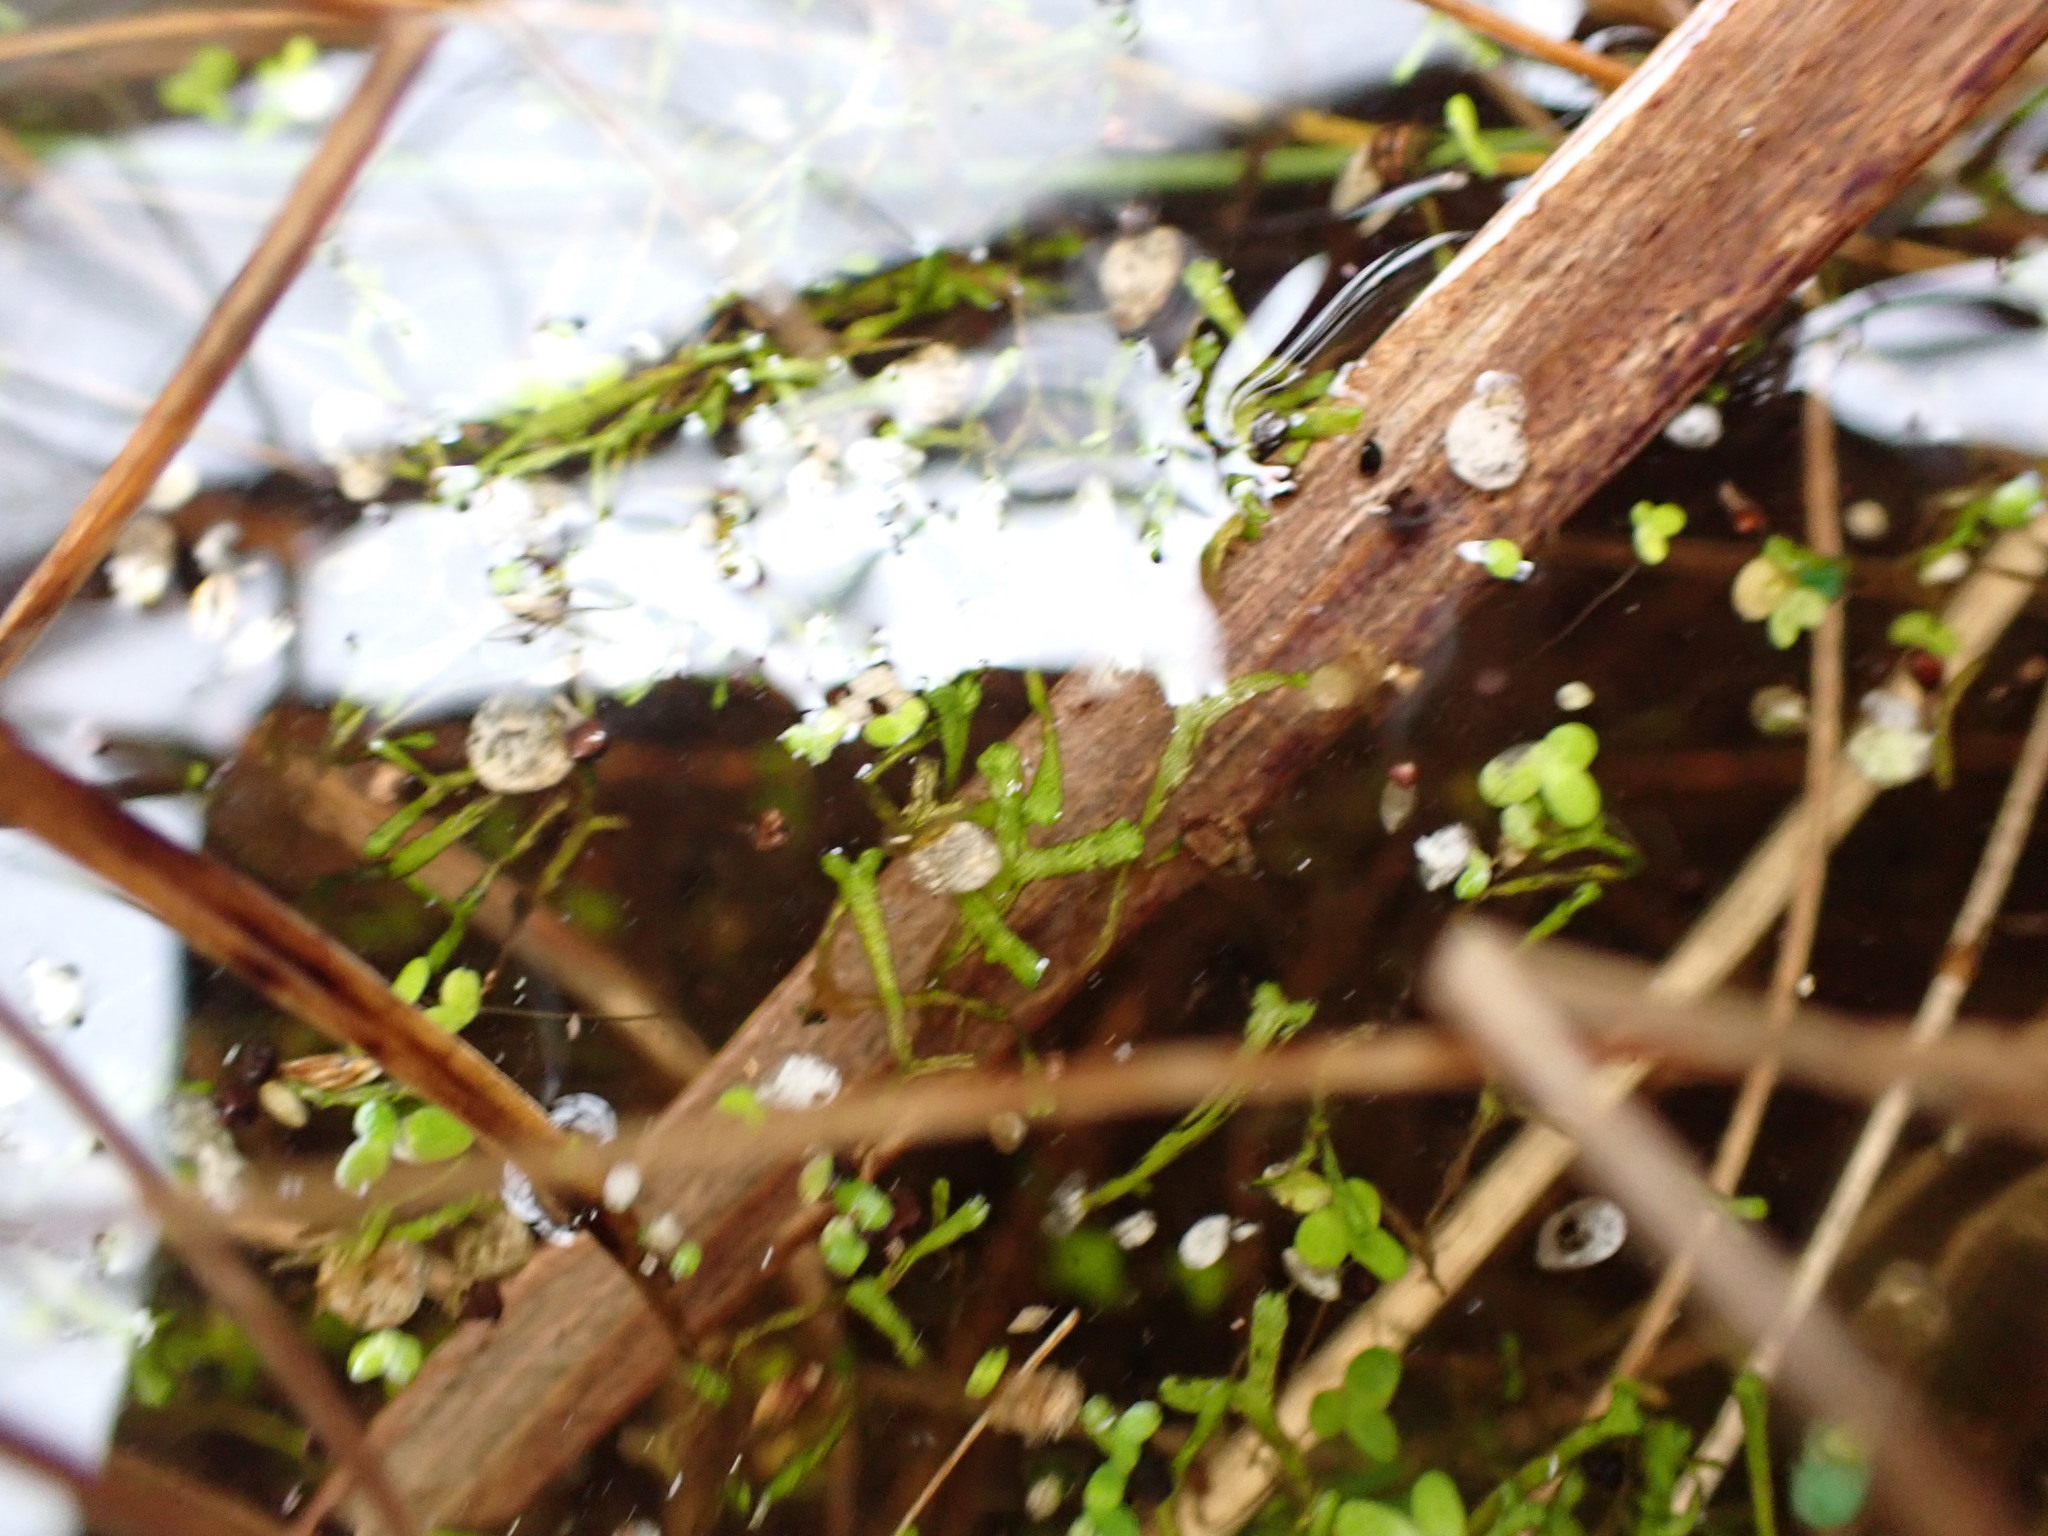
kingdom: Plantae
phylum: Marchantiophyta
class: Marchantiopsida
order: Marchantiales
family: Ricciaceae
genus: Riccia
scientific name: Riccia fluitans
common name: Floating crystalwort
